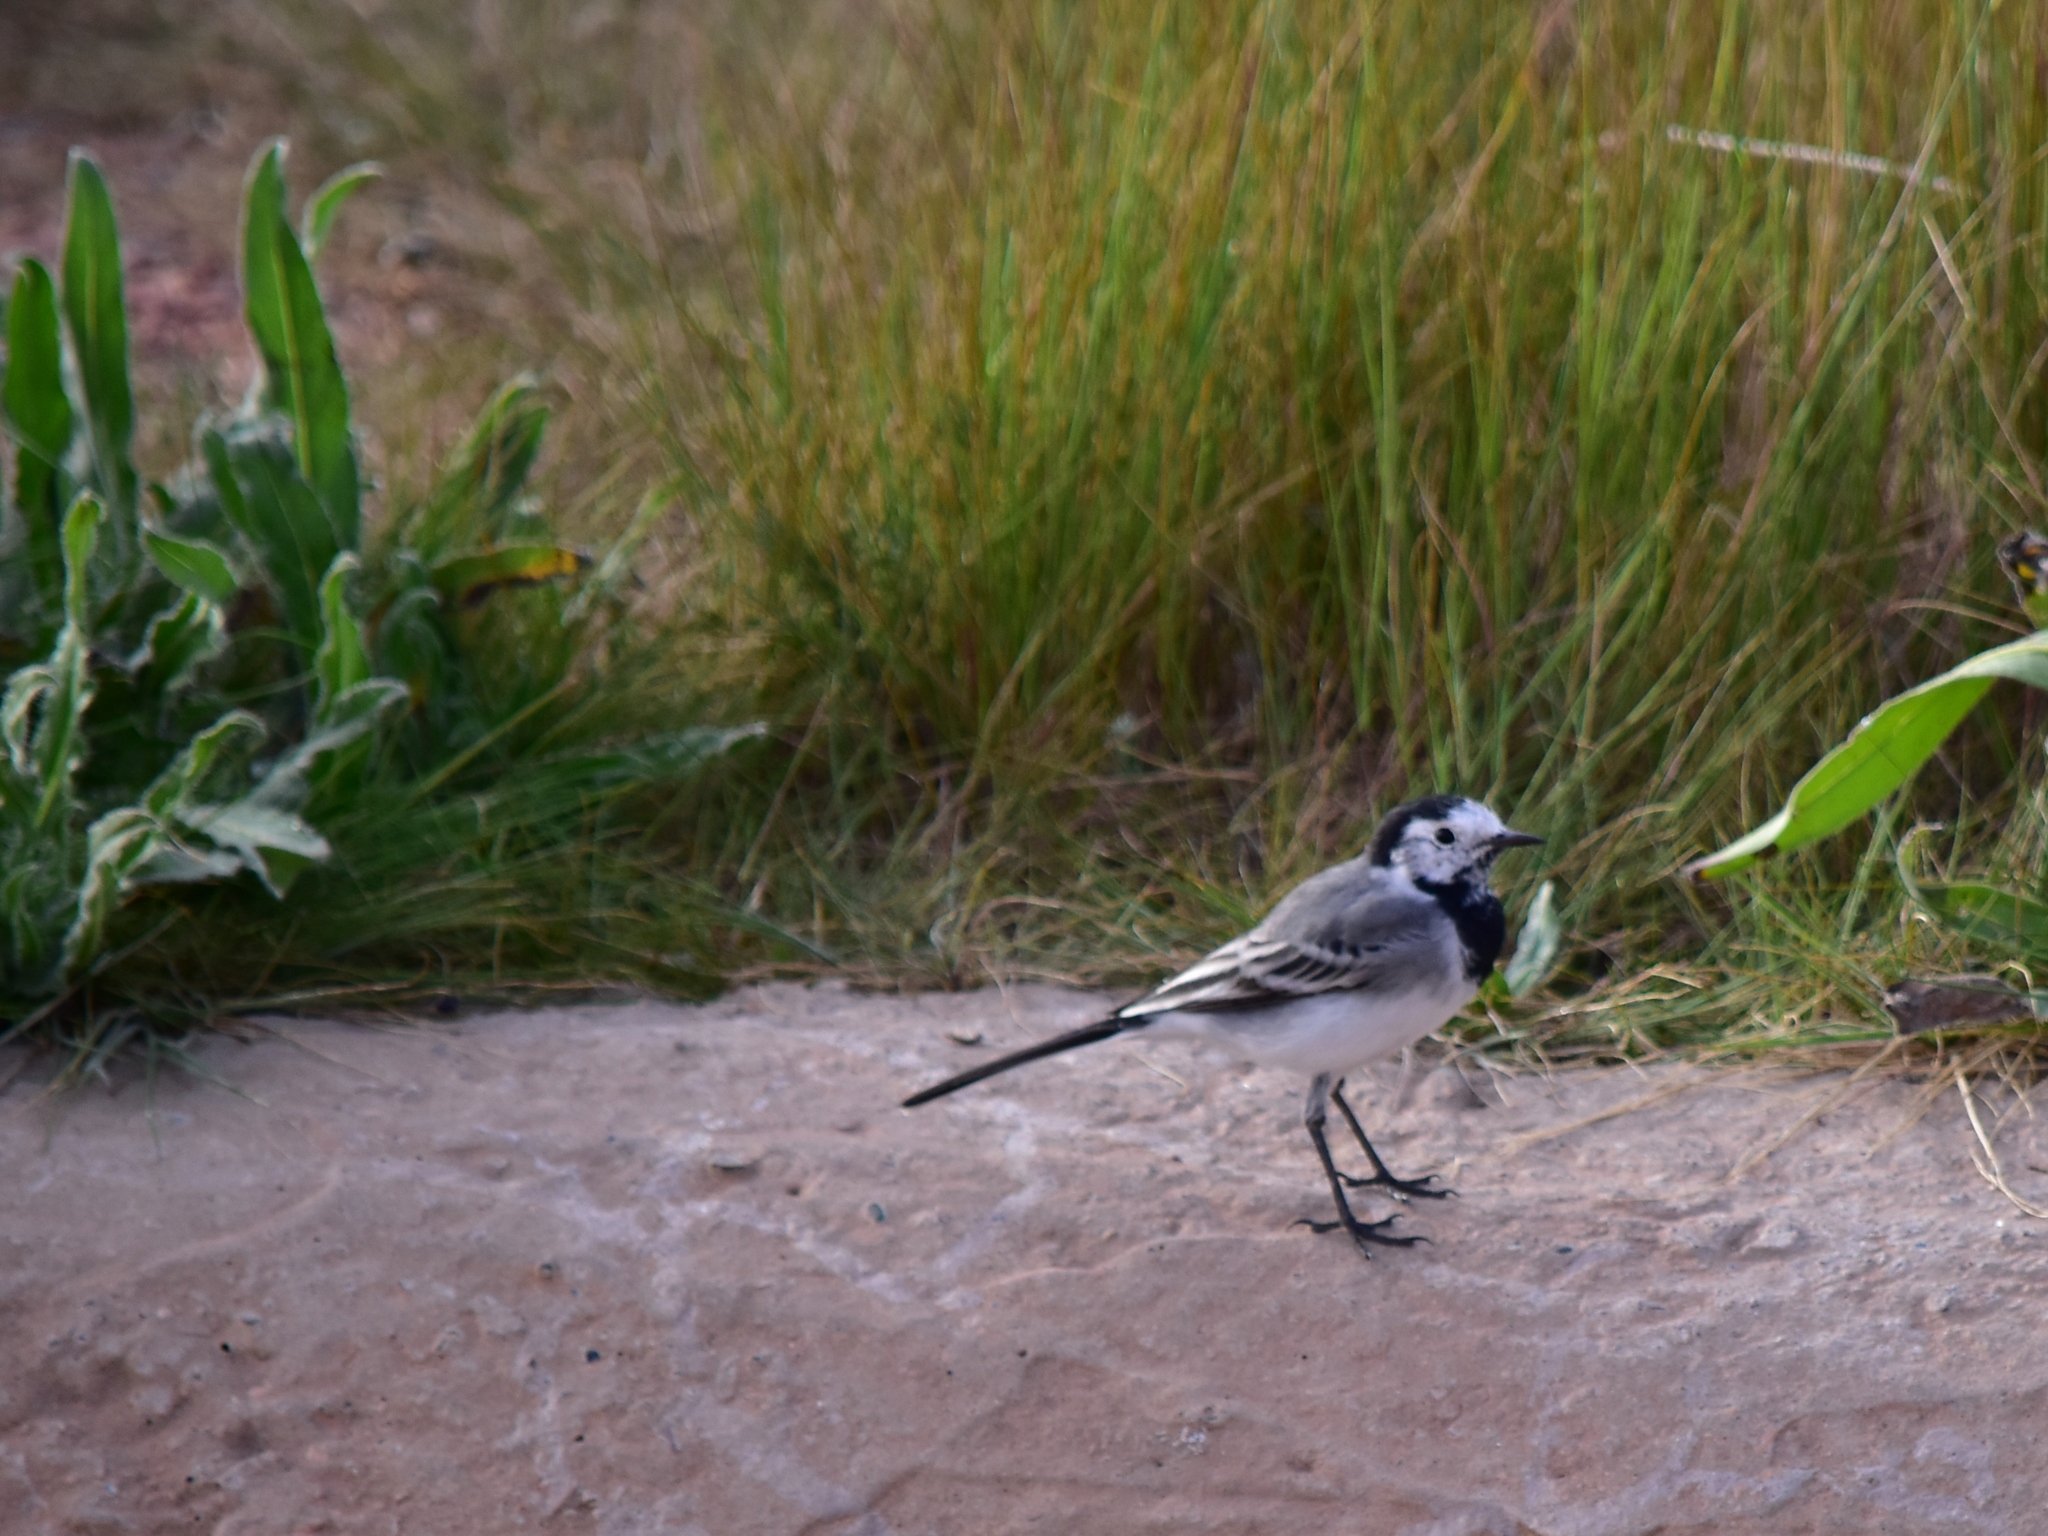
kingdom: Animalia
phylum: Chordata
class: Aves
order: Passeriformes
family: Motacillidae
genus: Motacilla
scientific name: Motacilla alba
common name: White wagtail
